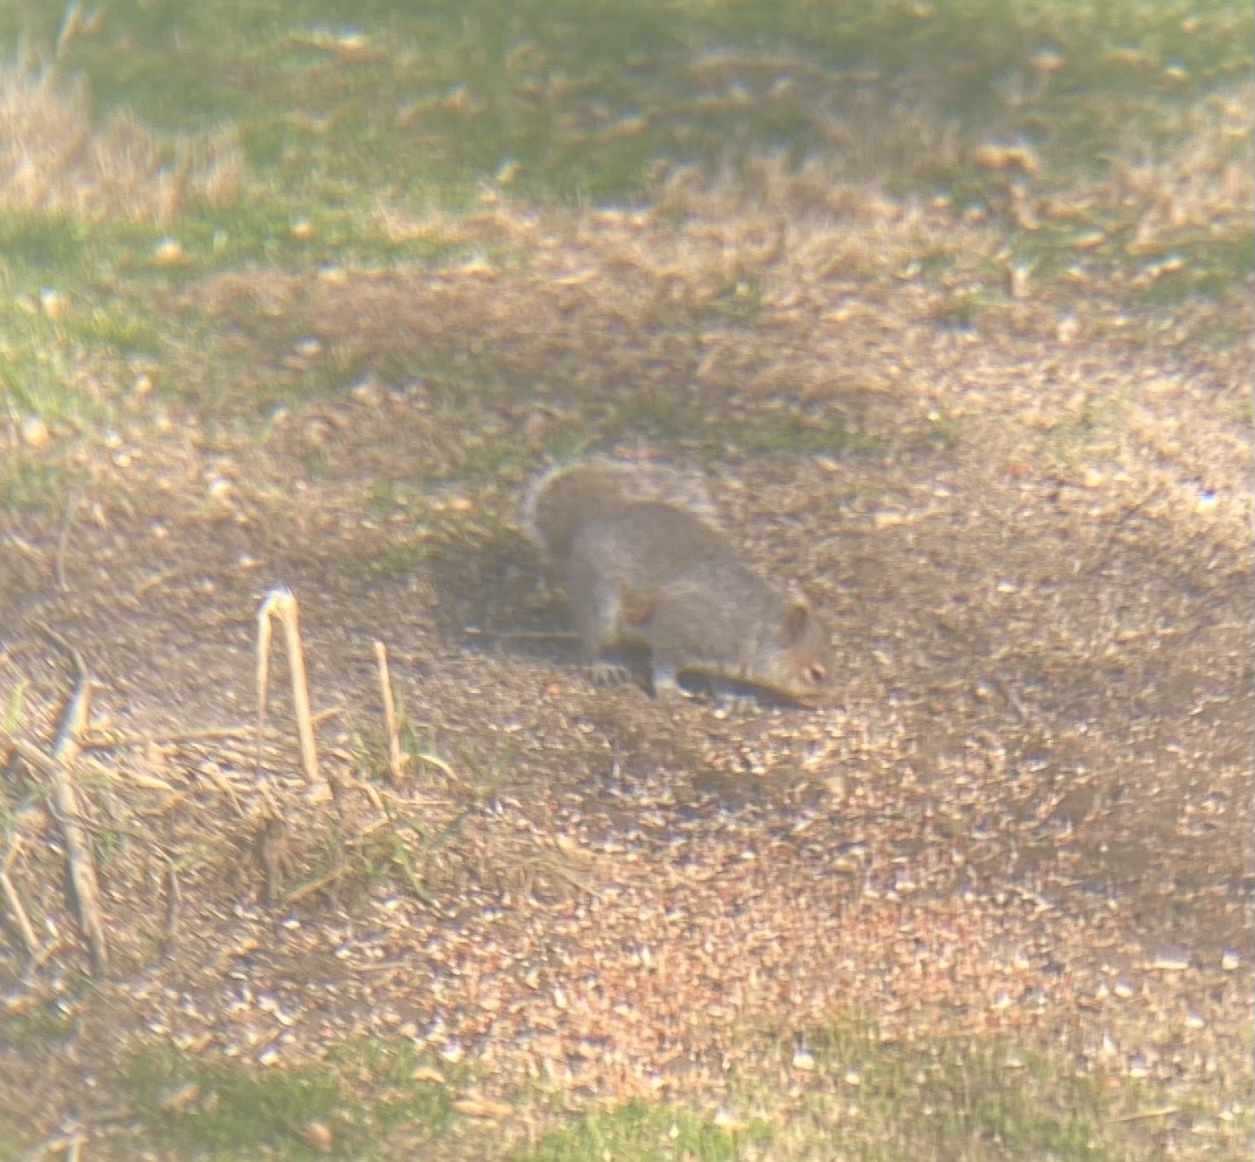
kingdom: Animalia
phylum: Chordata
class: Mammalia
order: Rodentia
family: Sciuridae
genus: Sciurus
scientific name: Sciurus carolinensis
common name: Eastern gray squirrel
